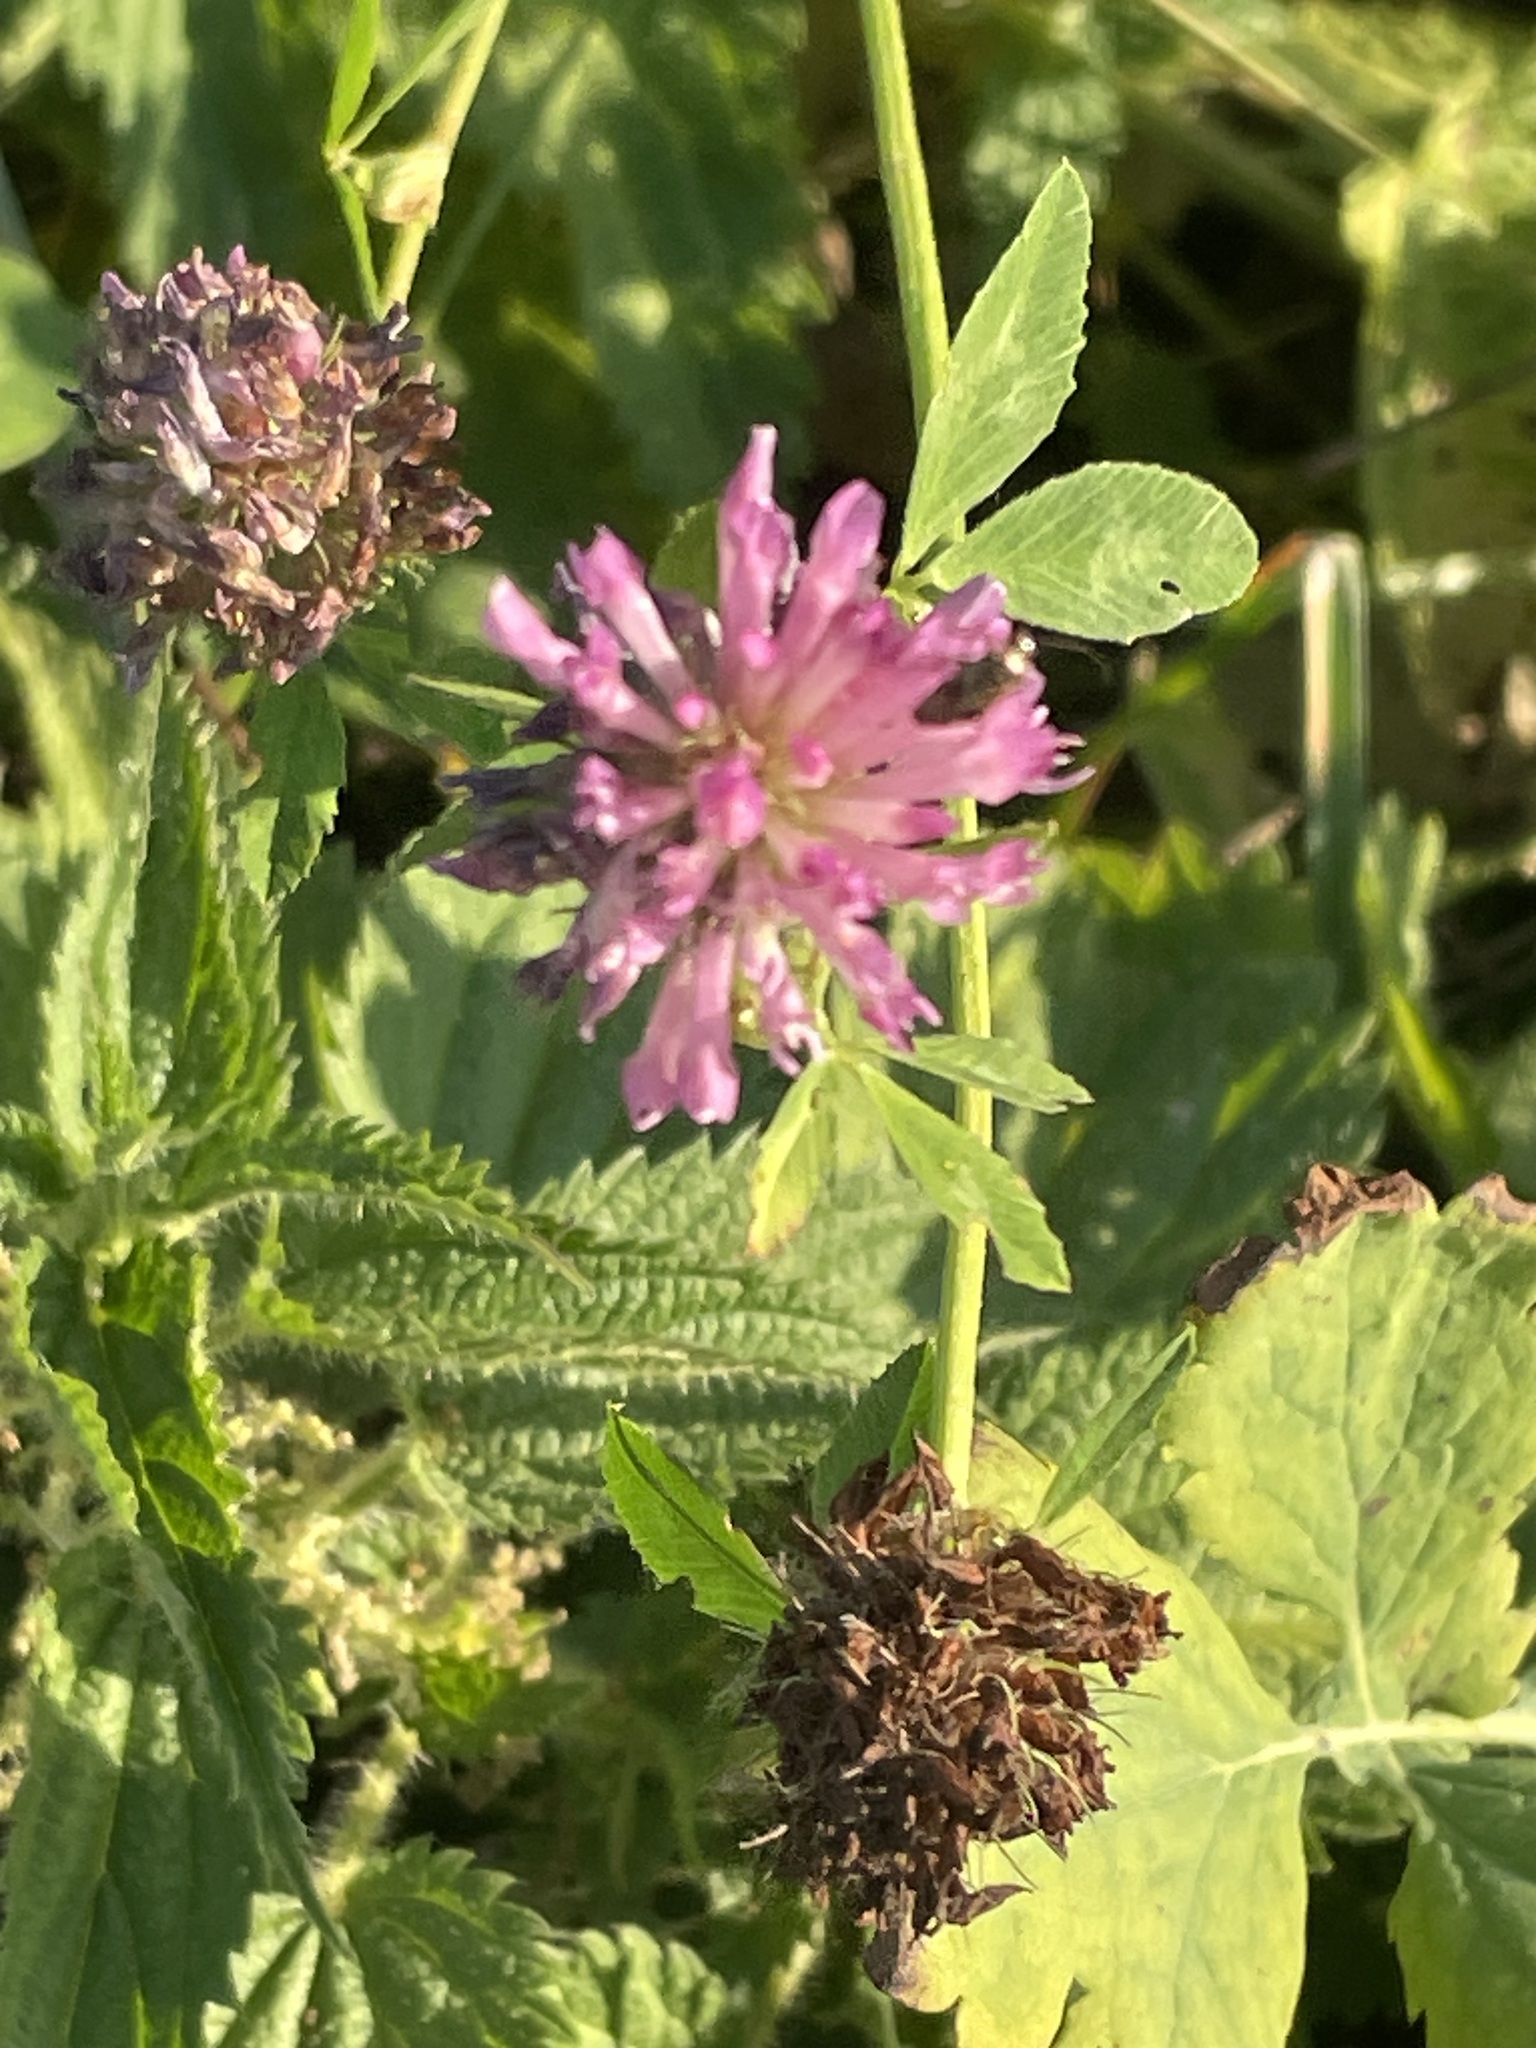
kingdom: Plantae
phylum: Tracheophyta
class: Magnoliopsida
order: Fabales
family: Fabaceae
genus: Trifolium
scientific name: Trifolium pratense
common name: Red clover
